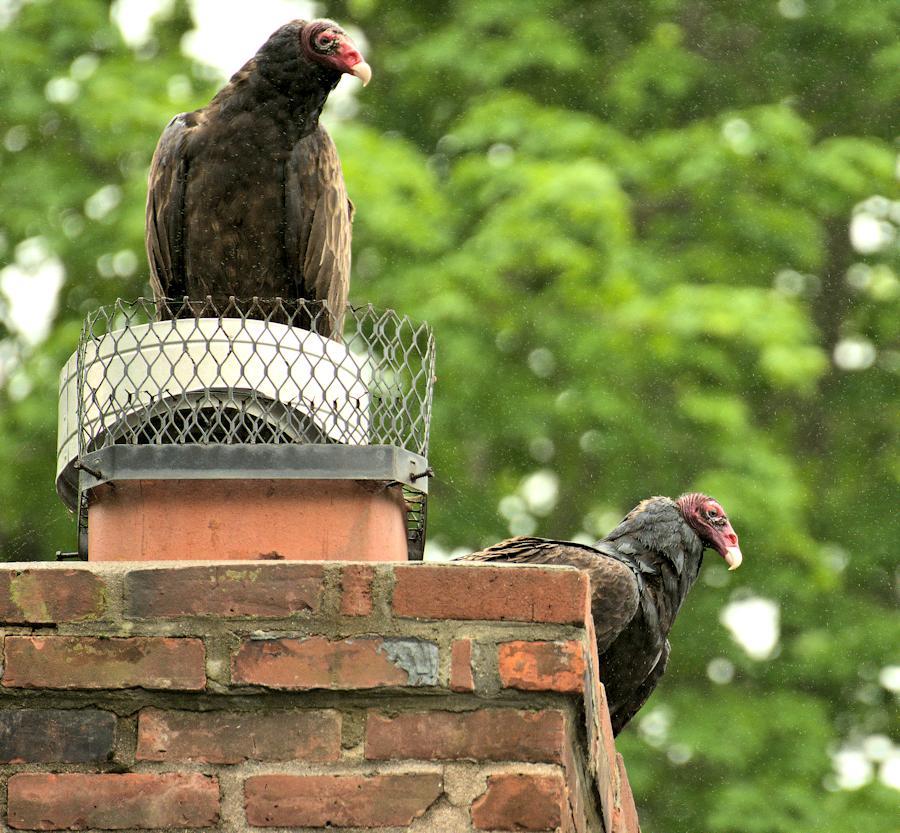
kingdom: Animalia
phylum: Chordata
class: Aves
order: Accipitriformes
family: Cathartidae
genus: Cathartes
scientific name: Cathartes aura
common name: Turkey vulture
